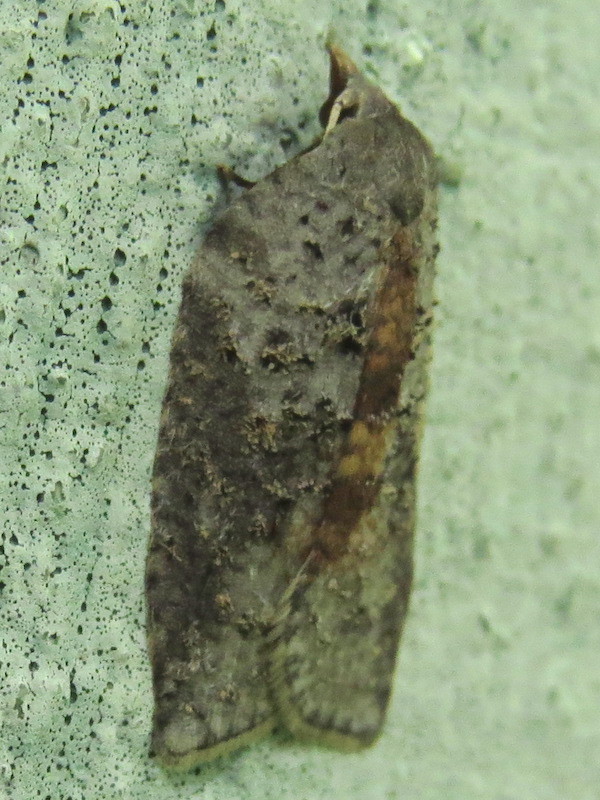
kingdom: Animalia
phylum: Arthropoda
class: Insecta
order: Lepidoptera
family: Tortricidae
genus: Amorbia
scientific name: Amorbia humerosana
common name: White-lined leafroller moth
